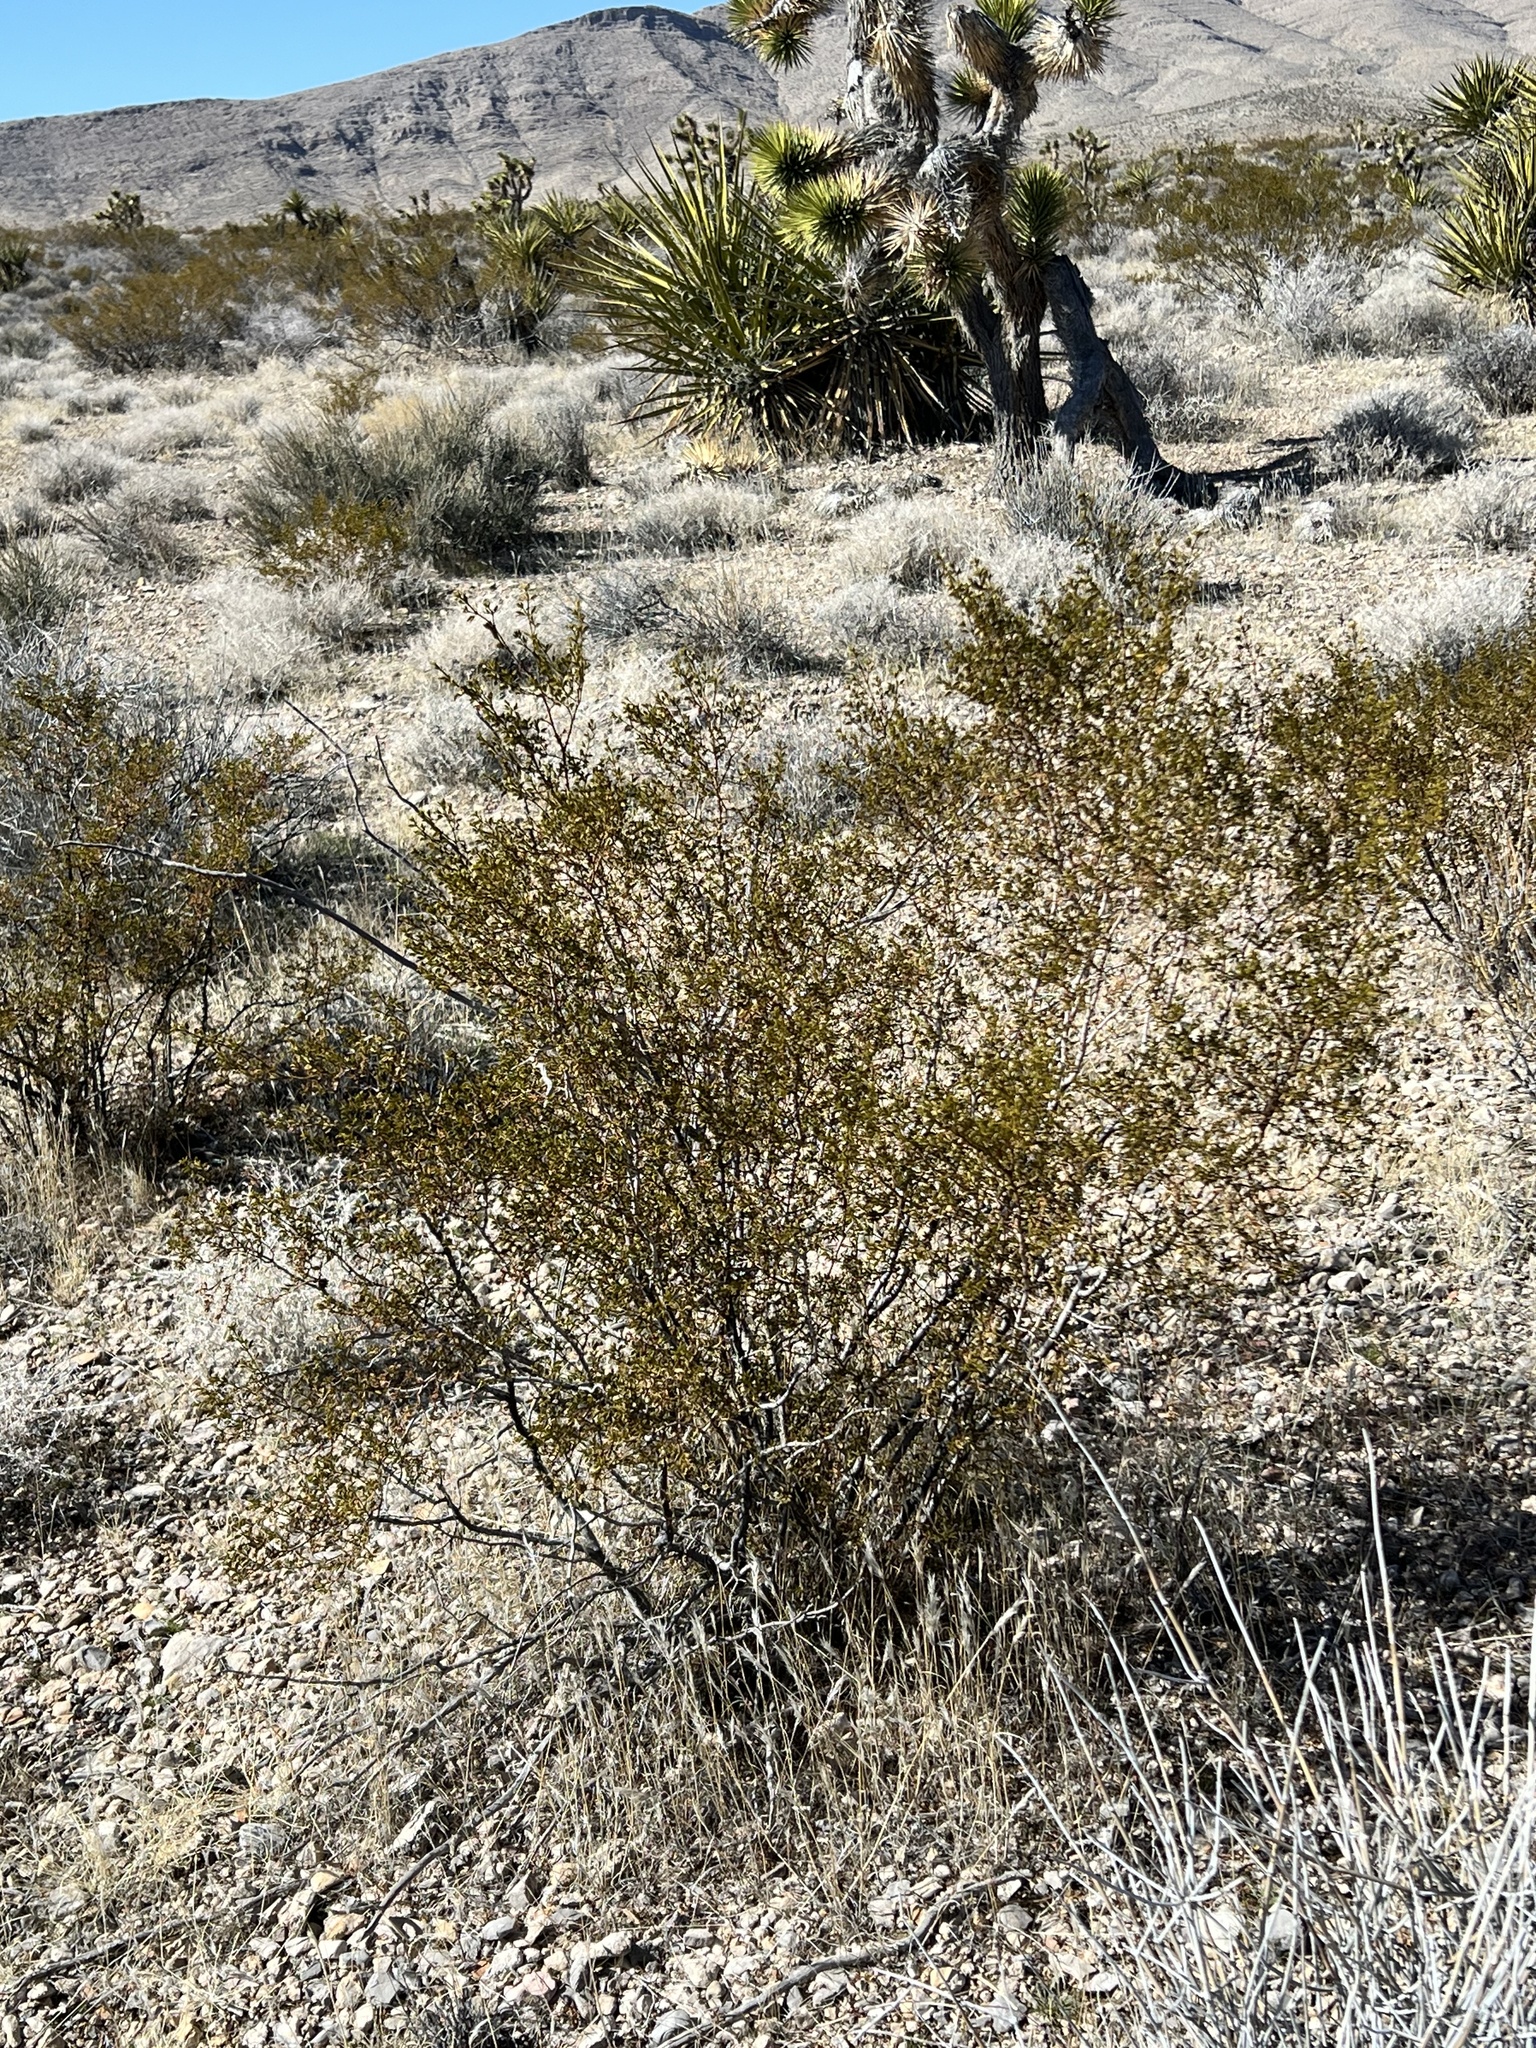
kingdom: Plantae
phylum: Tracheophyta
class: Magnoliopsida
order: Zygophyllales
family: Zygophyllaceae
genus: Larrea
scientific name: Larrea tridentata
